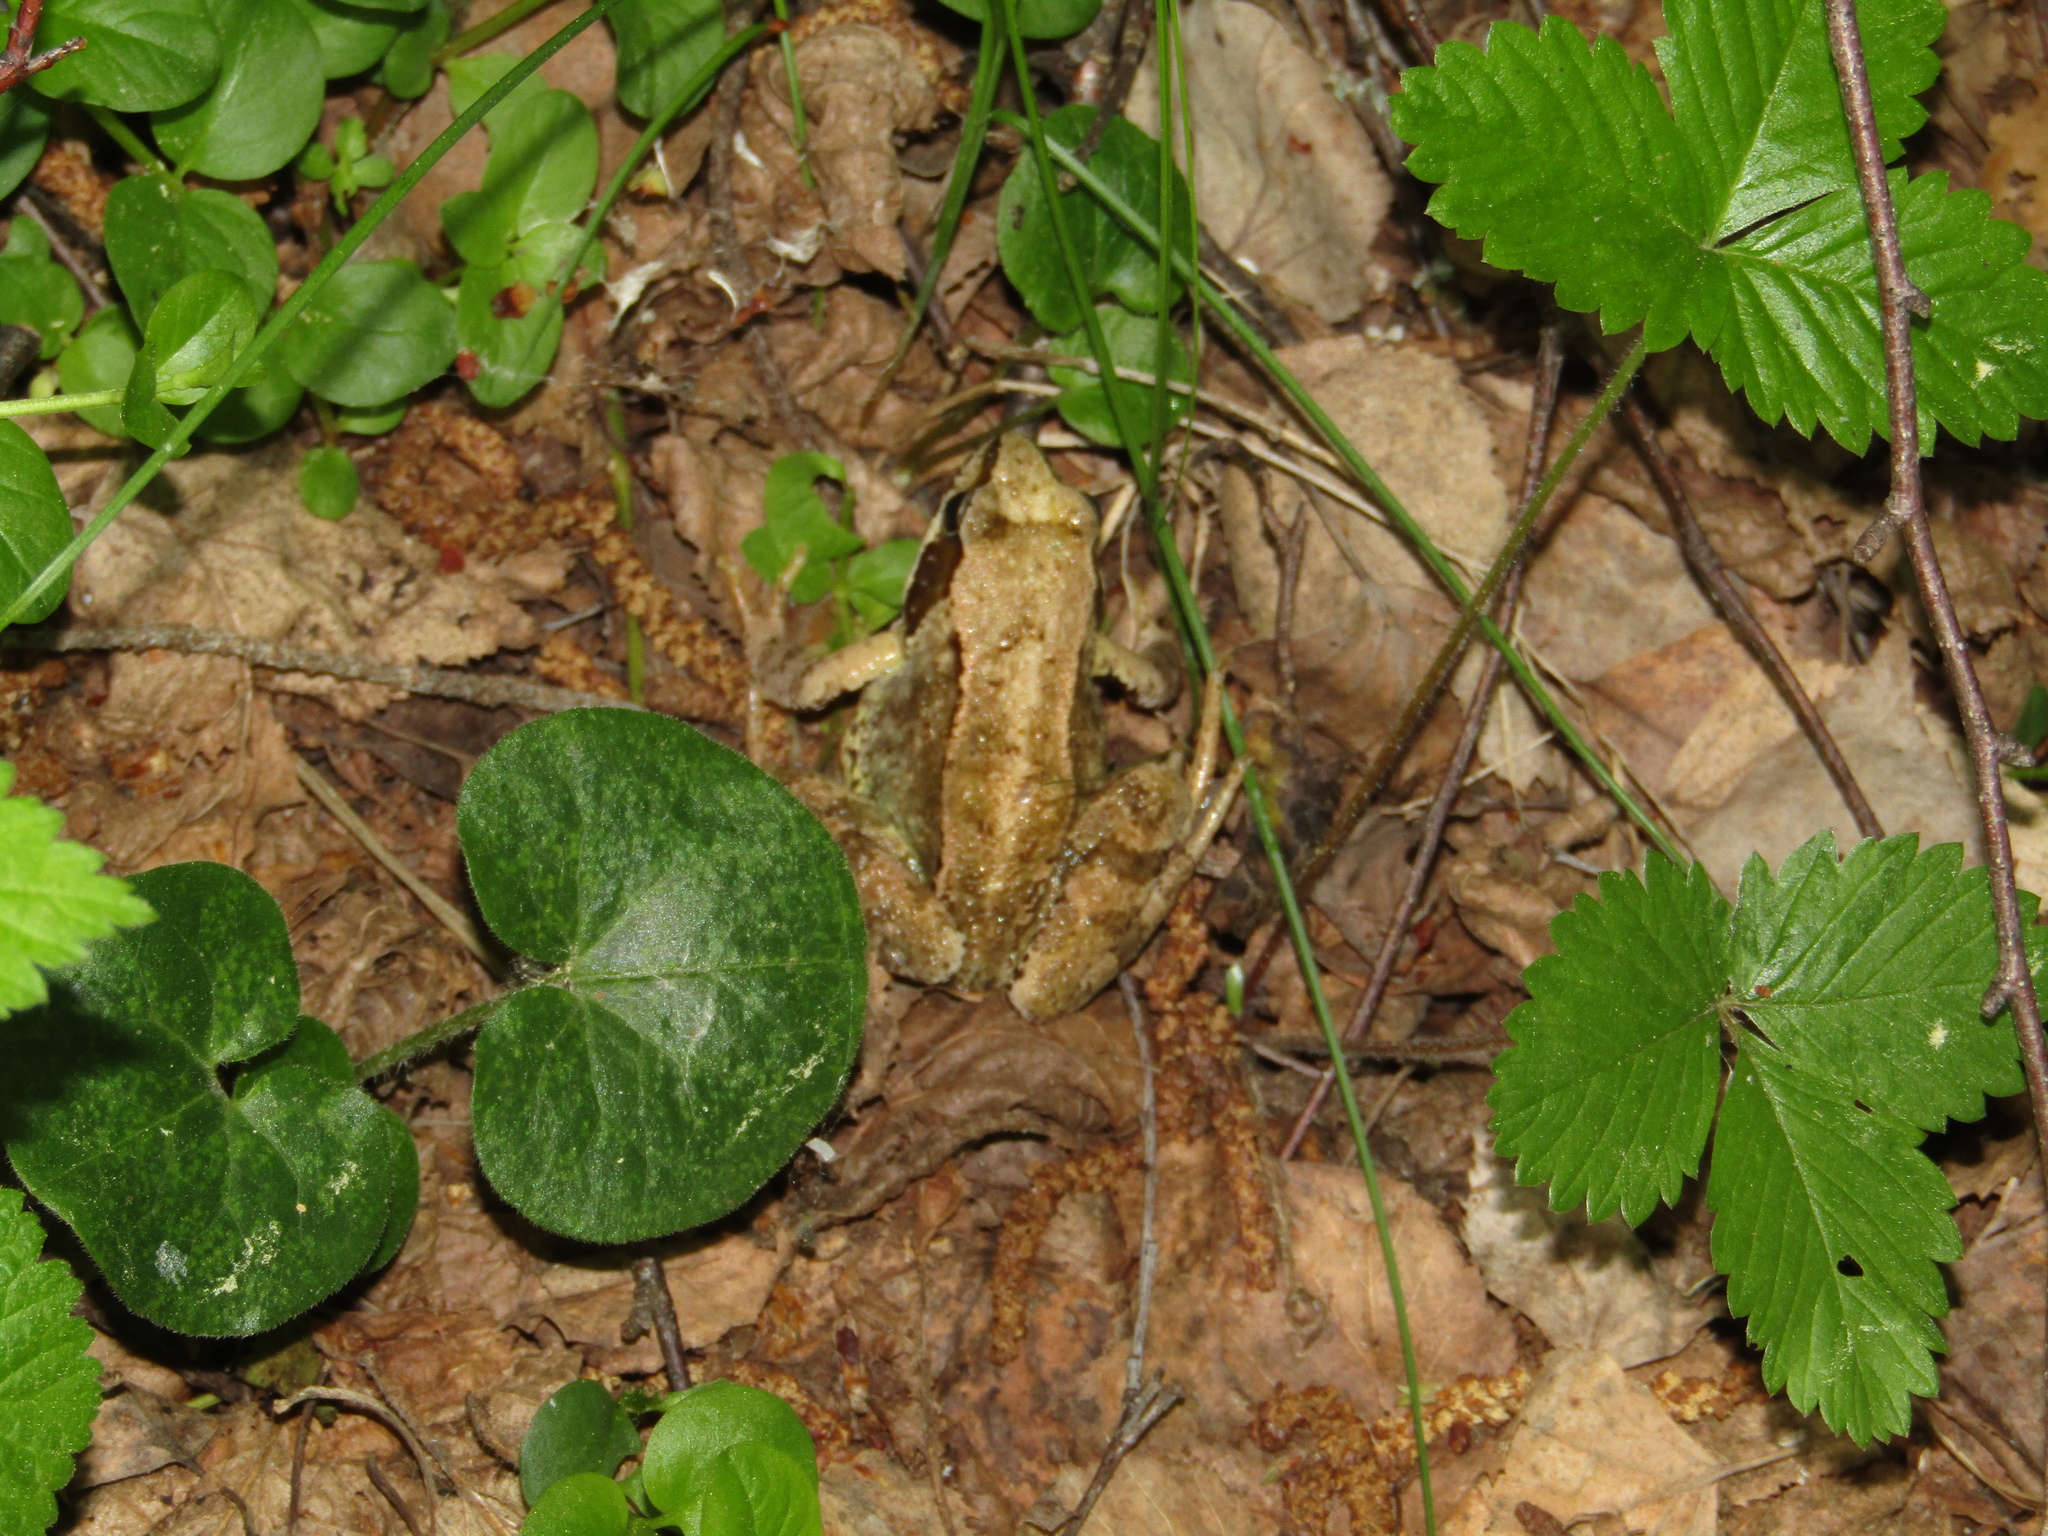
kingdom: Animalia
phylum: Chordata
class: Amphibia
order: Anura
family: Ranidae
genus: Rana
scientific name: Rana temporaria
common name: Common frog
